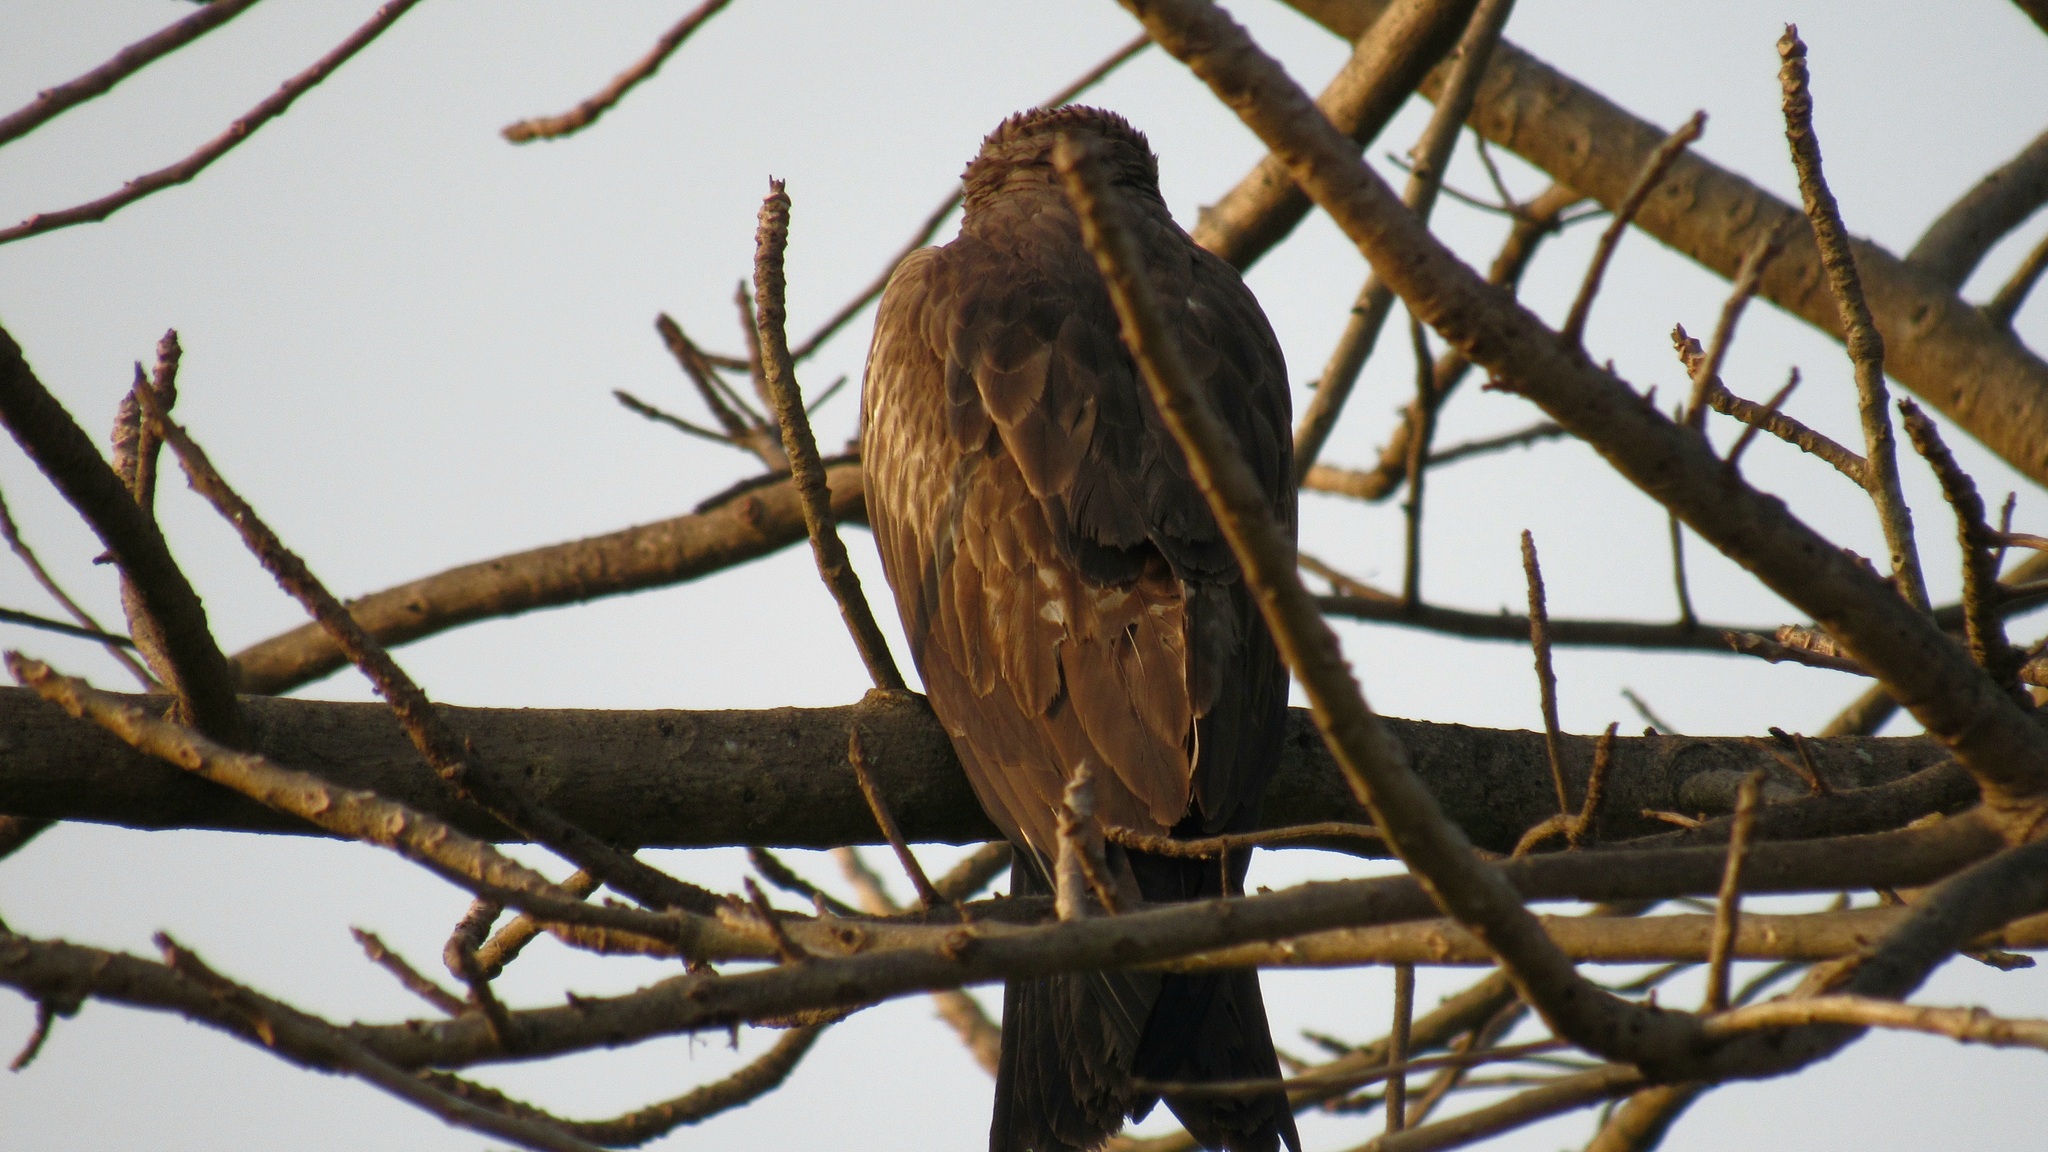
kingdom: Animalia
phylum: Chordata
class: Aves
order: Accipitriformes
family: Accipitridae
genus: Haliastur
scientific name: Haliastur indus
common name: Brahminy kite
